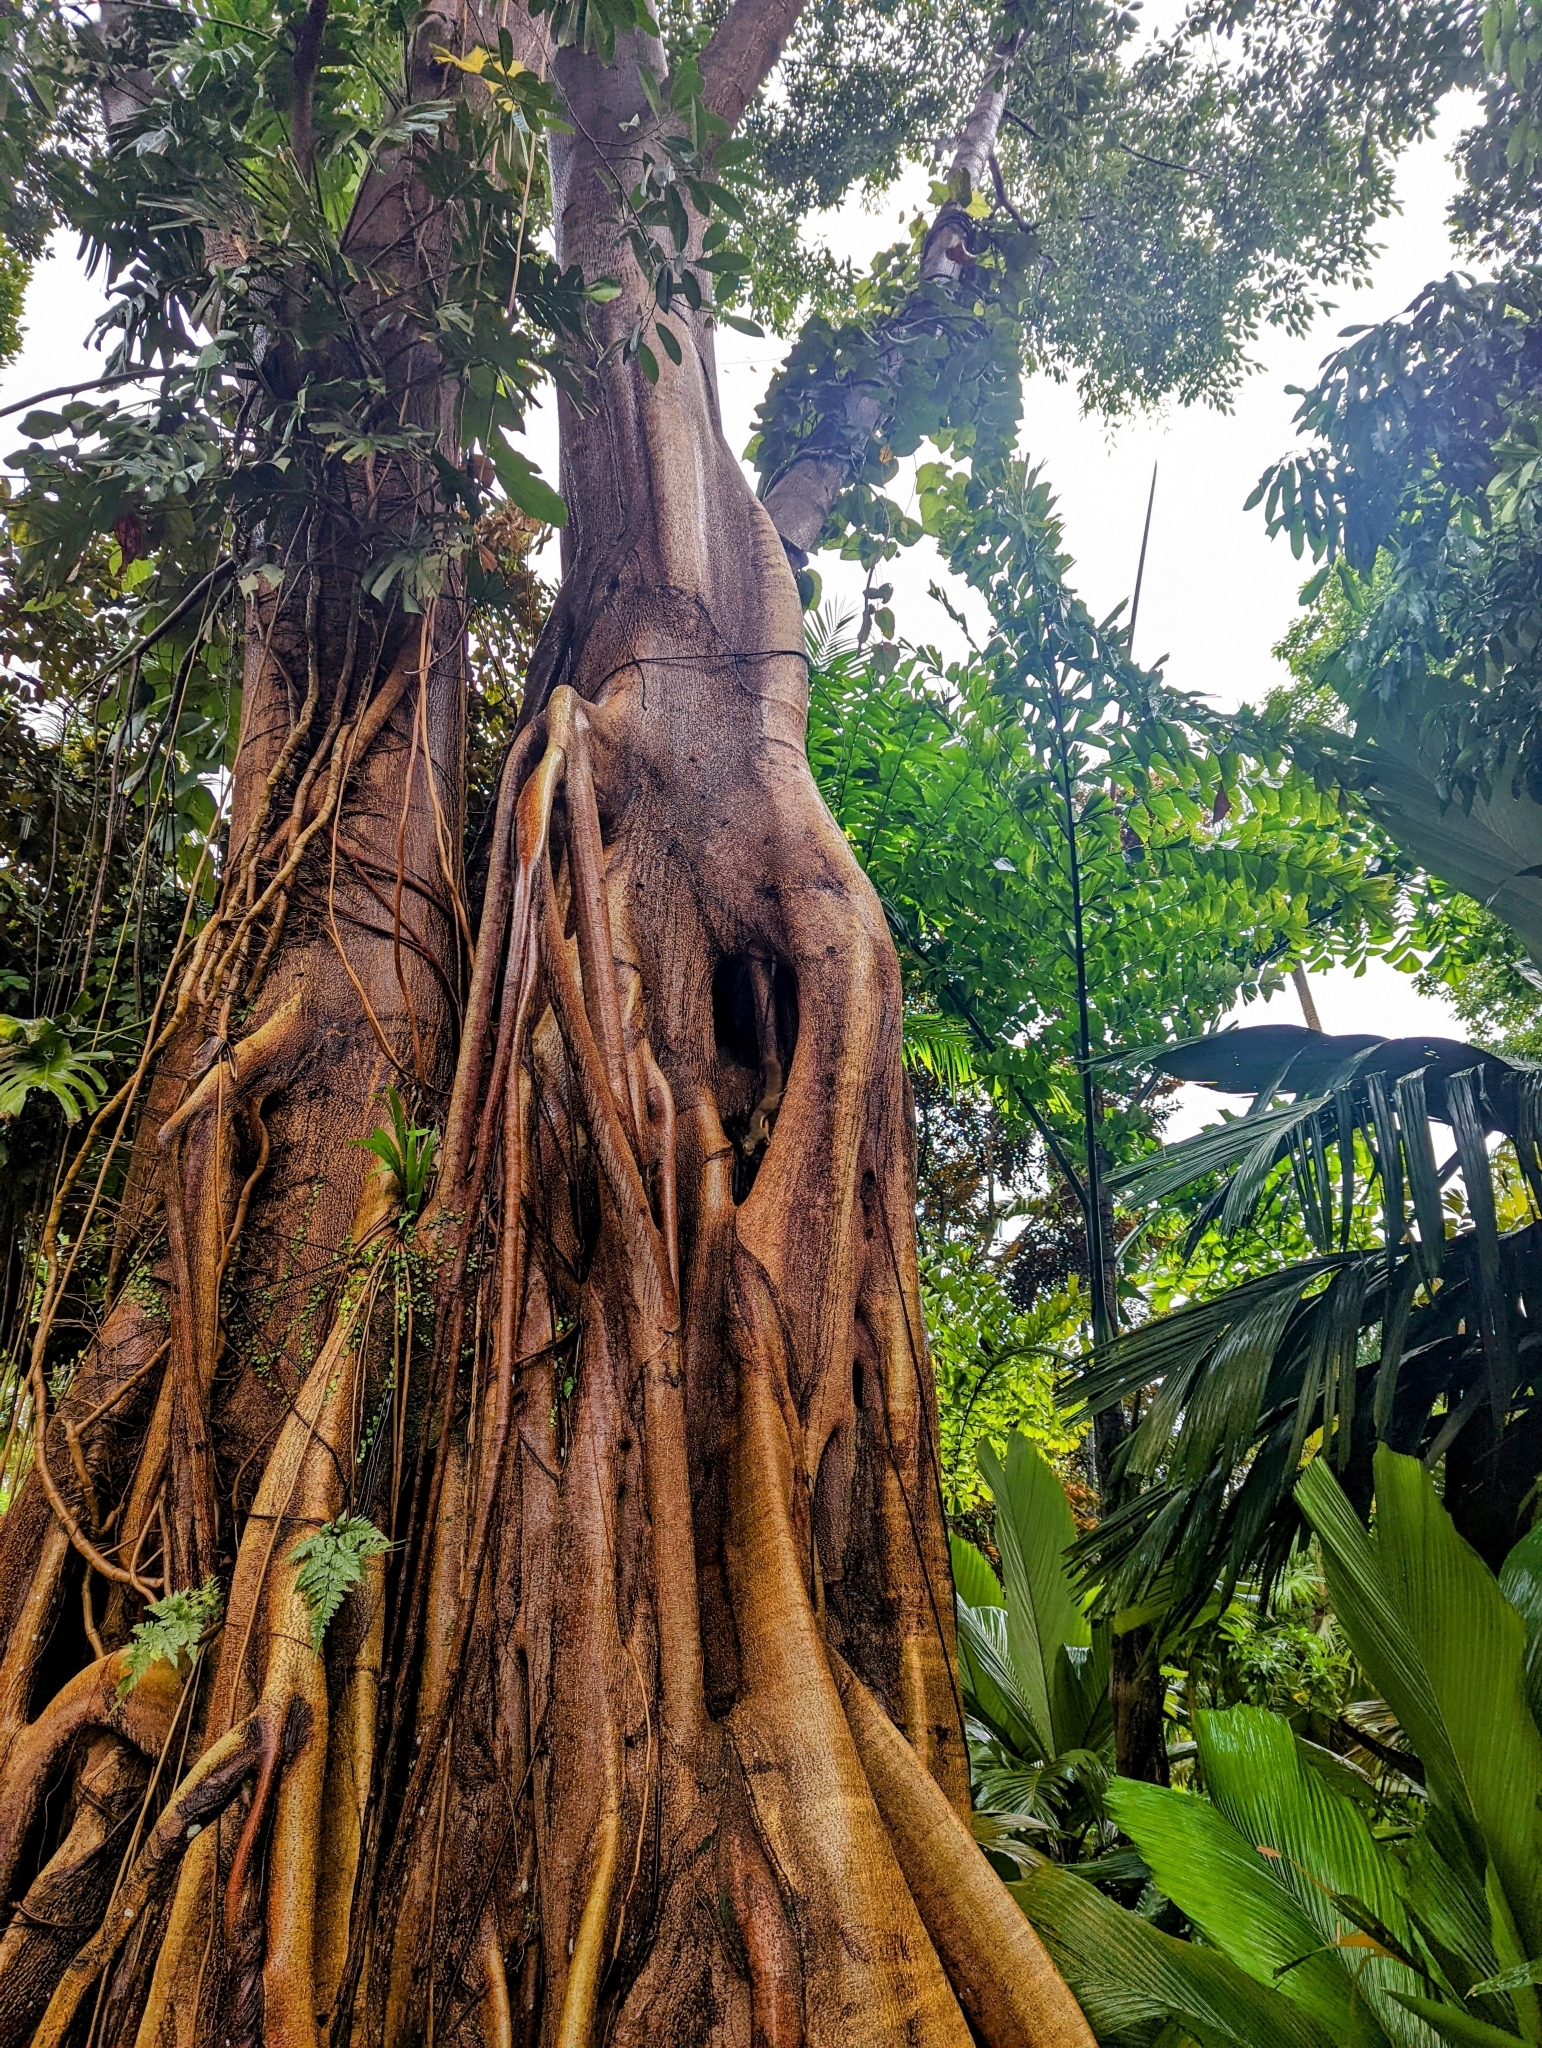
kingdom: Animalia
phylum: Chordata
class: Mammalia
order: Rodentia
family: Sciuridae
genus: Callosciurus
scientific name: Callosciurus notatus
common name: Plantain squirrel
